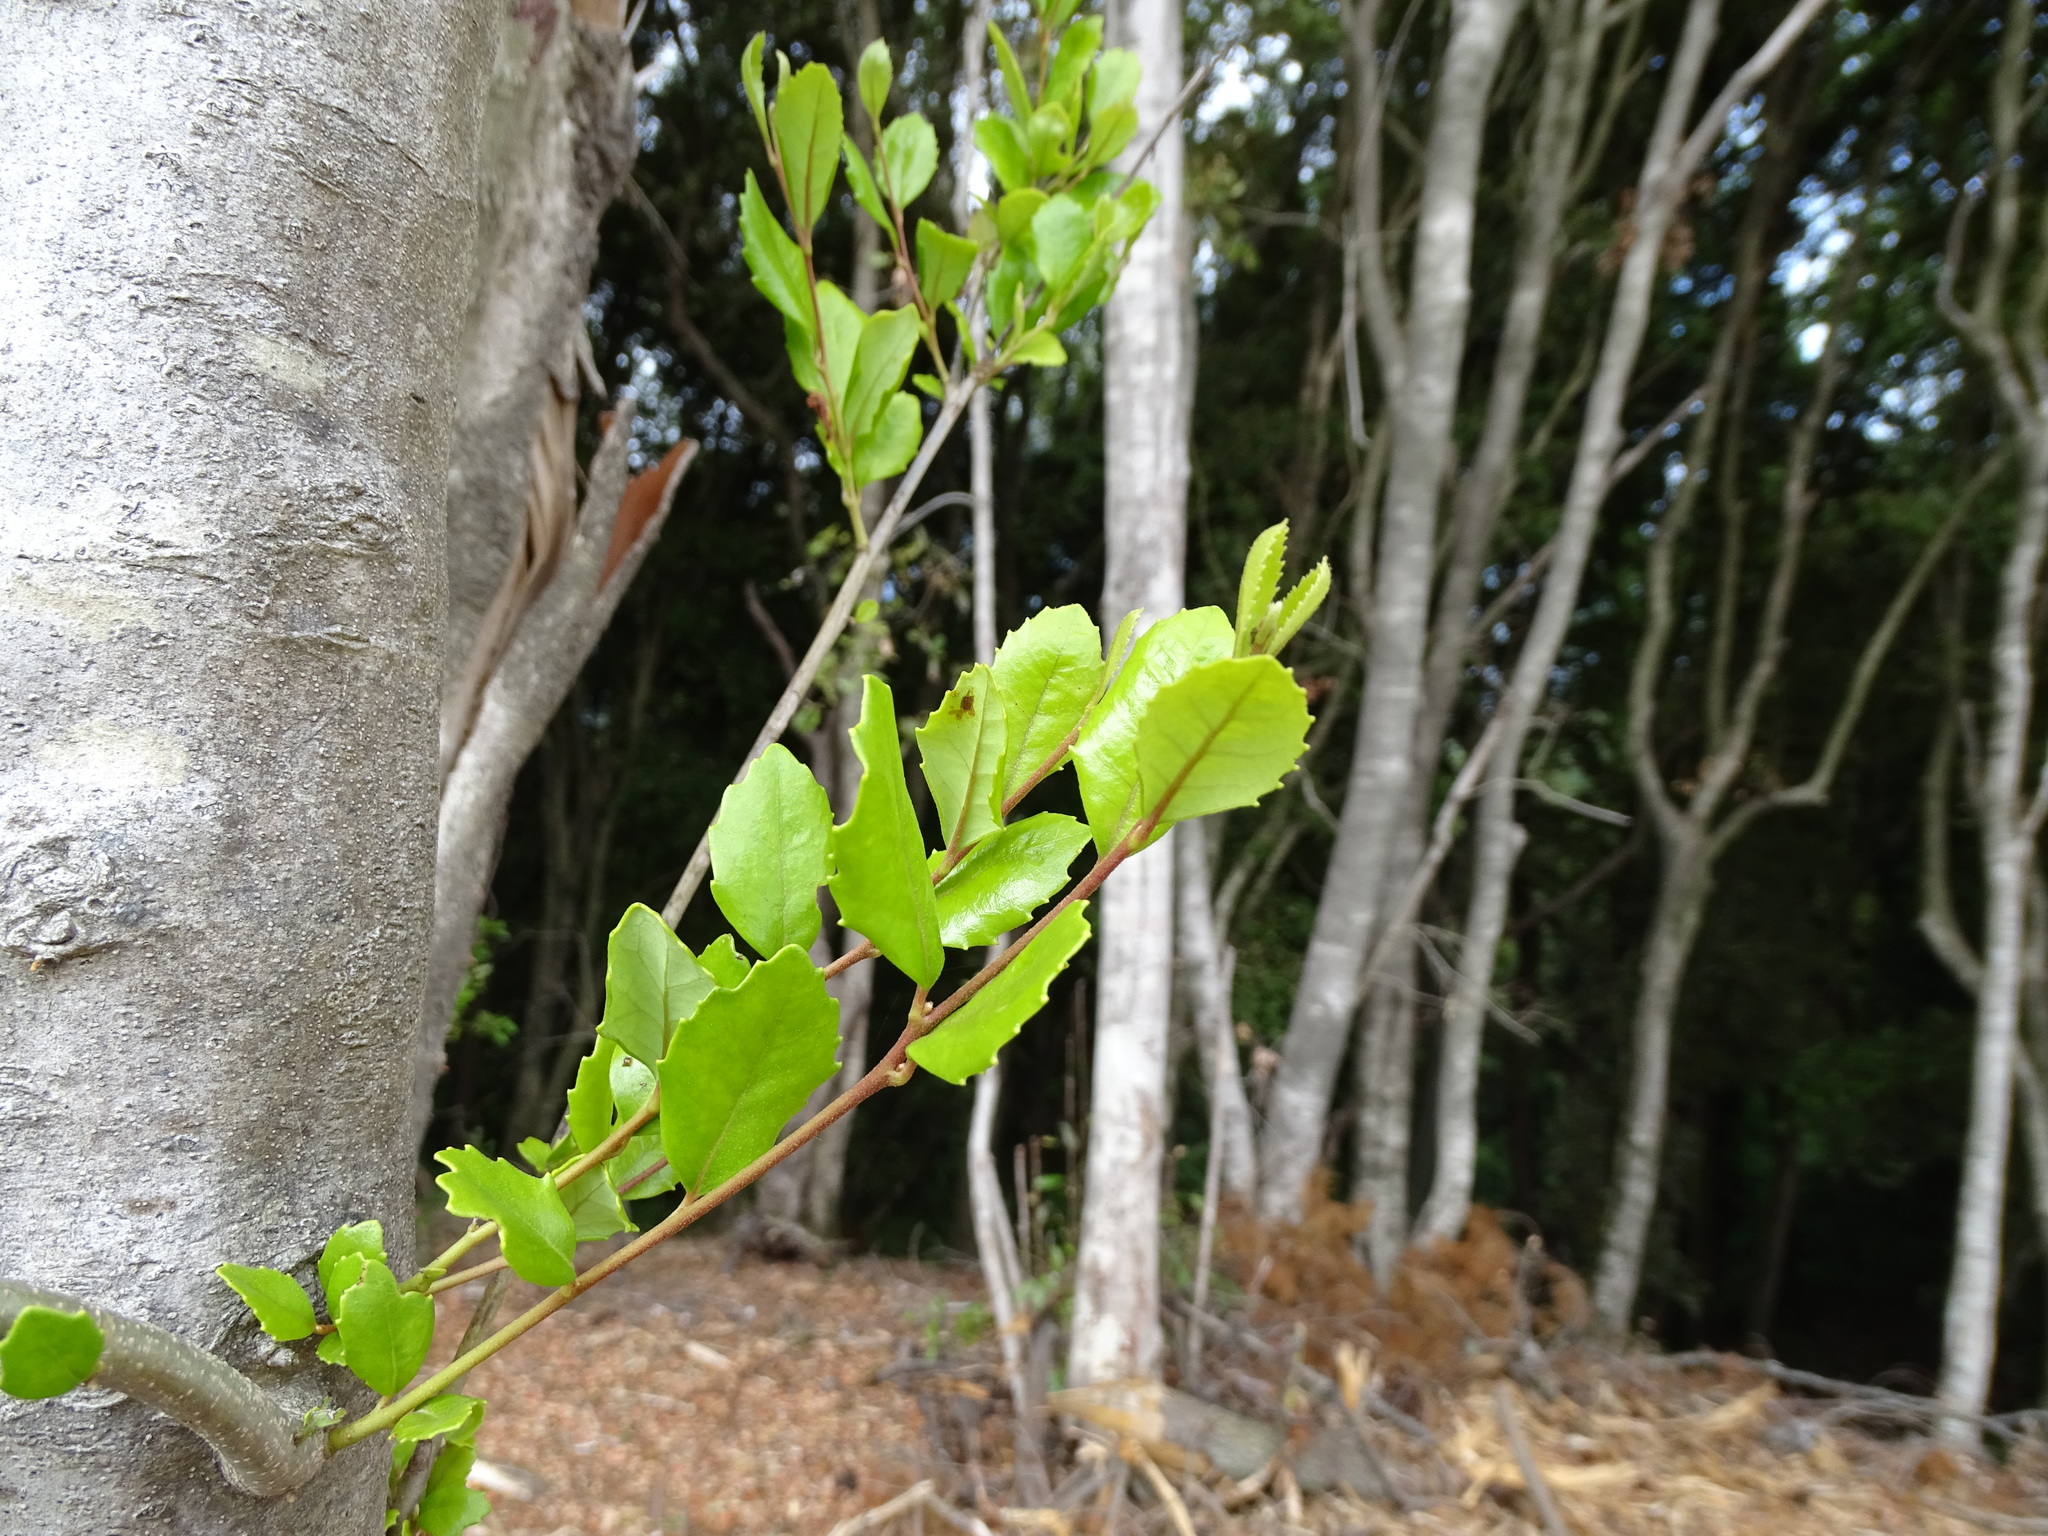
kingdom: Plantae
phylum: Tracheophyta
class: Magnoliopsida
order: Proteales
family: Proteaceae
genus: Lomatia
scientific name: Lomatia dentata
